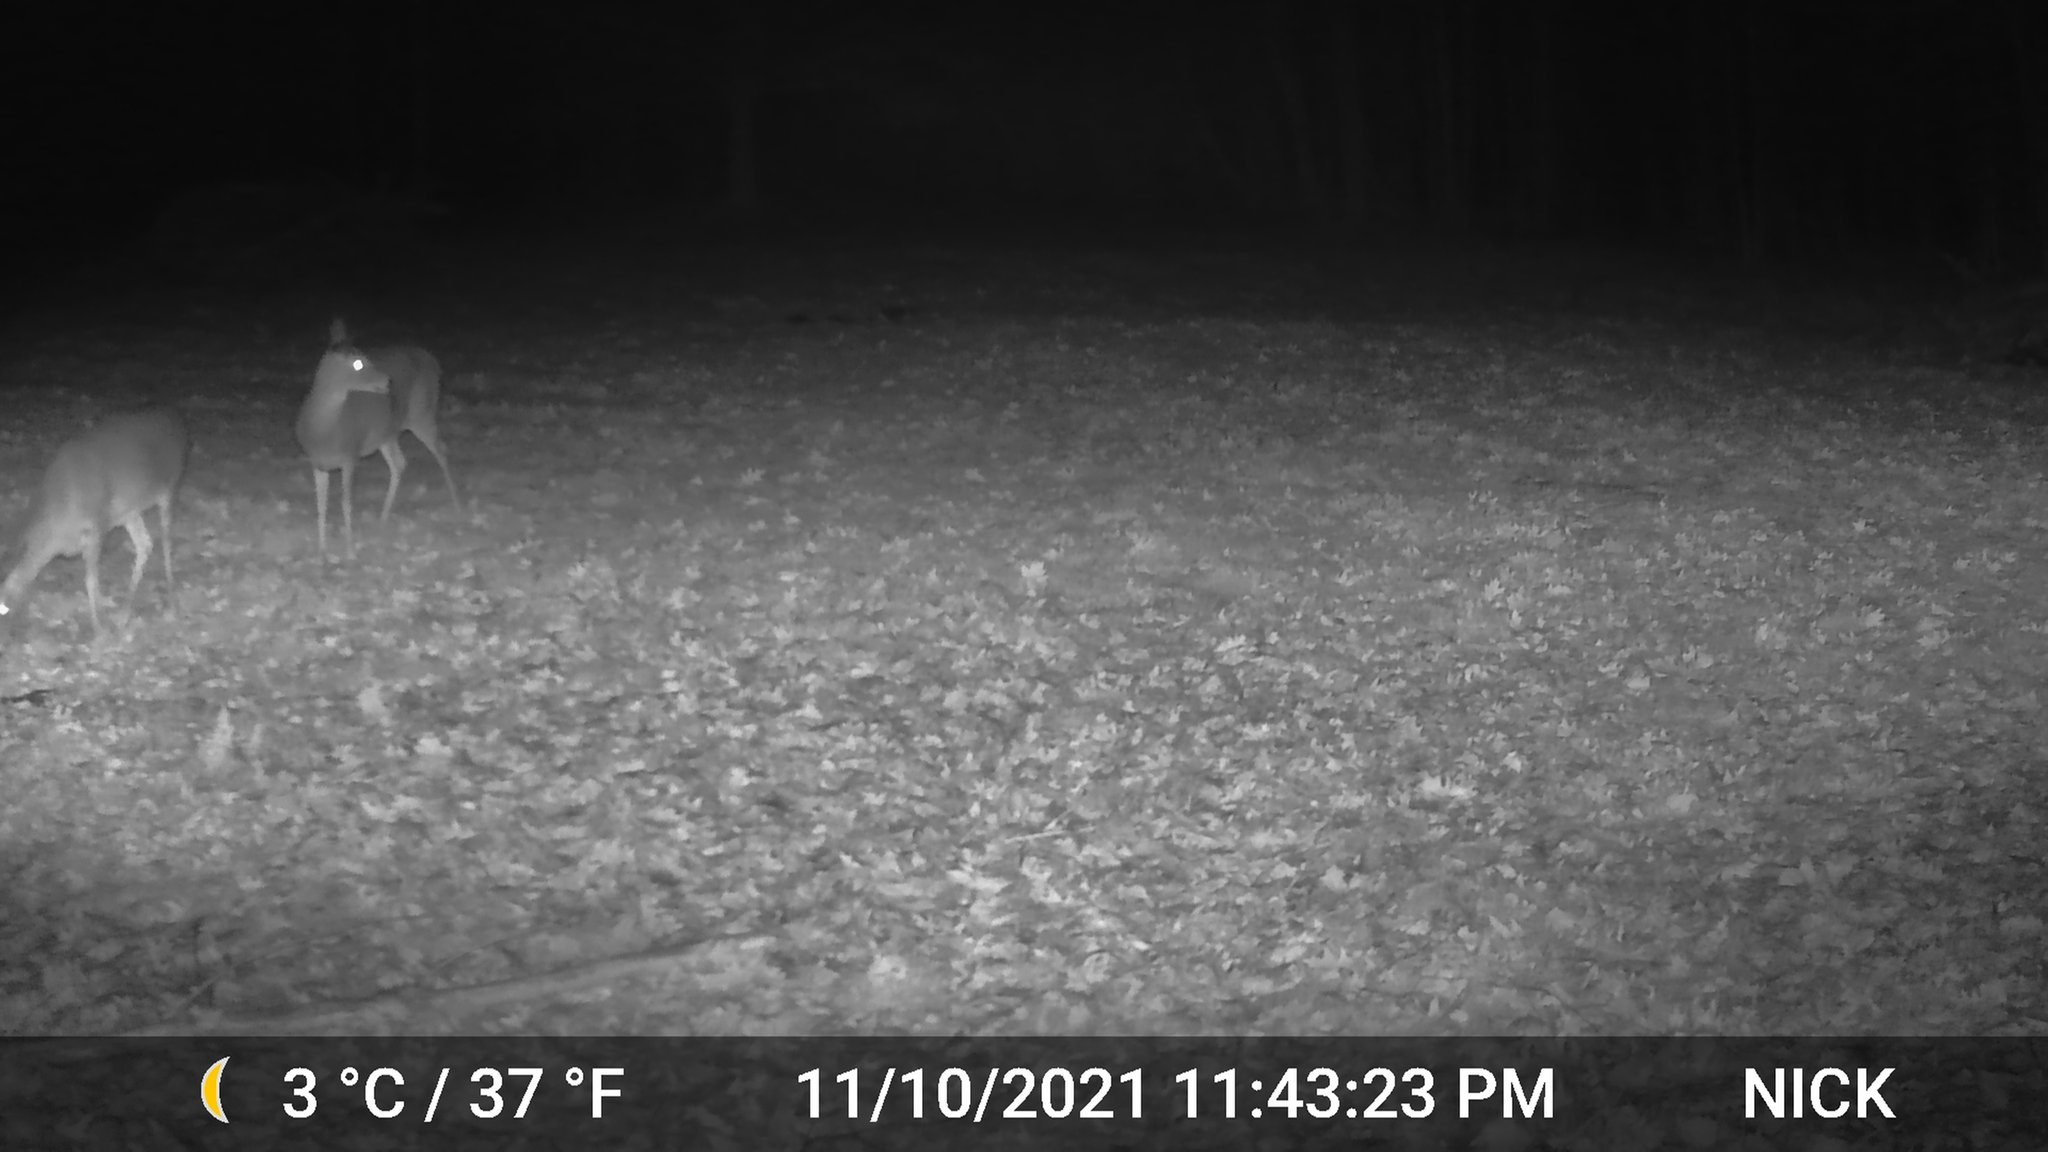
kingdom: Animalia
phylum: Chordata
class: Mammalia
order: Artiodactyla
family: Cervidae
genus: Odocoileus
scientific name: Odocoileus virginianus
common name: White-tailed deer
